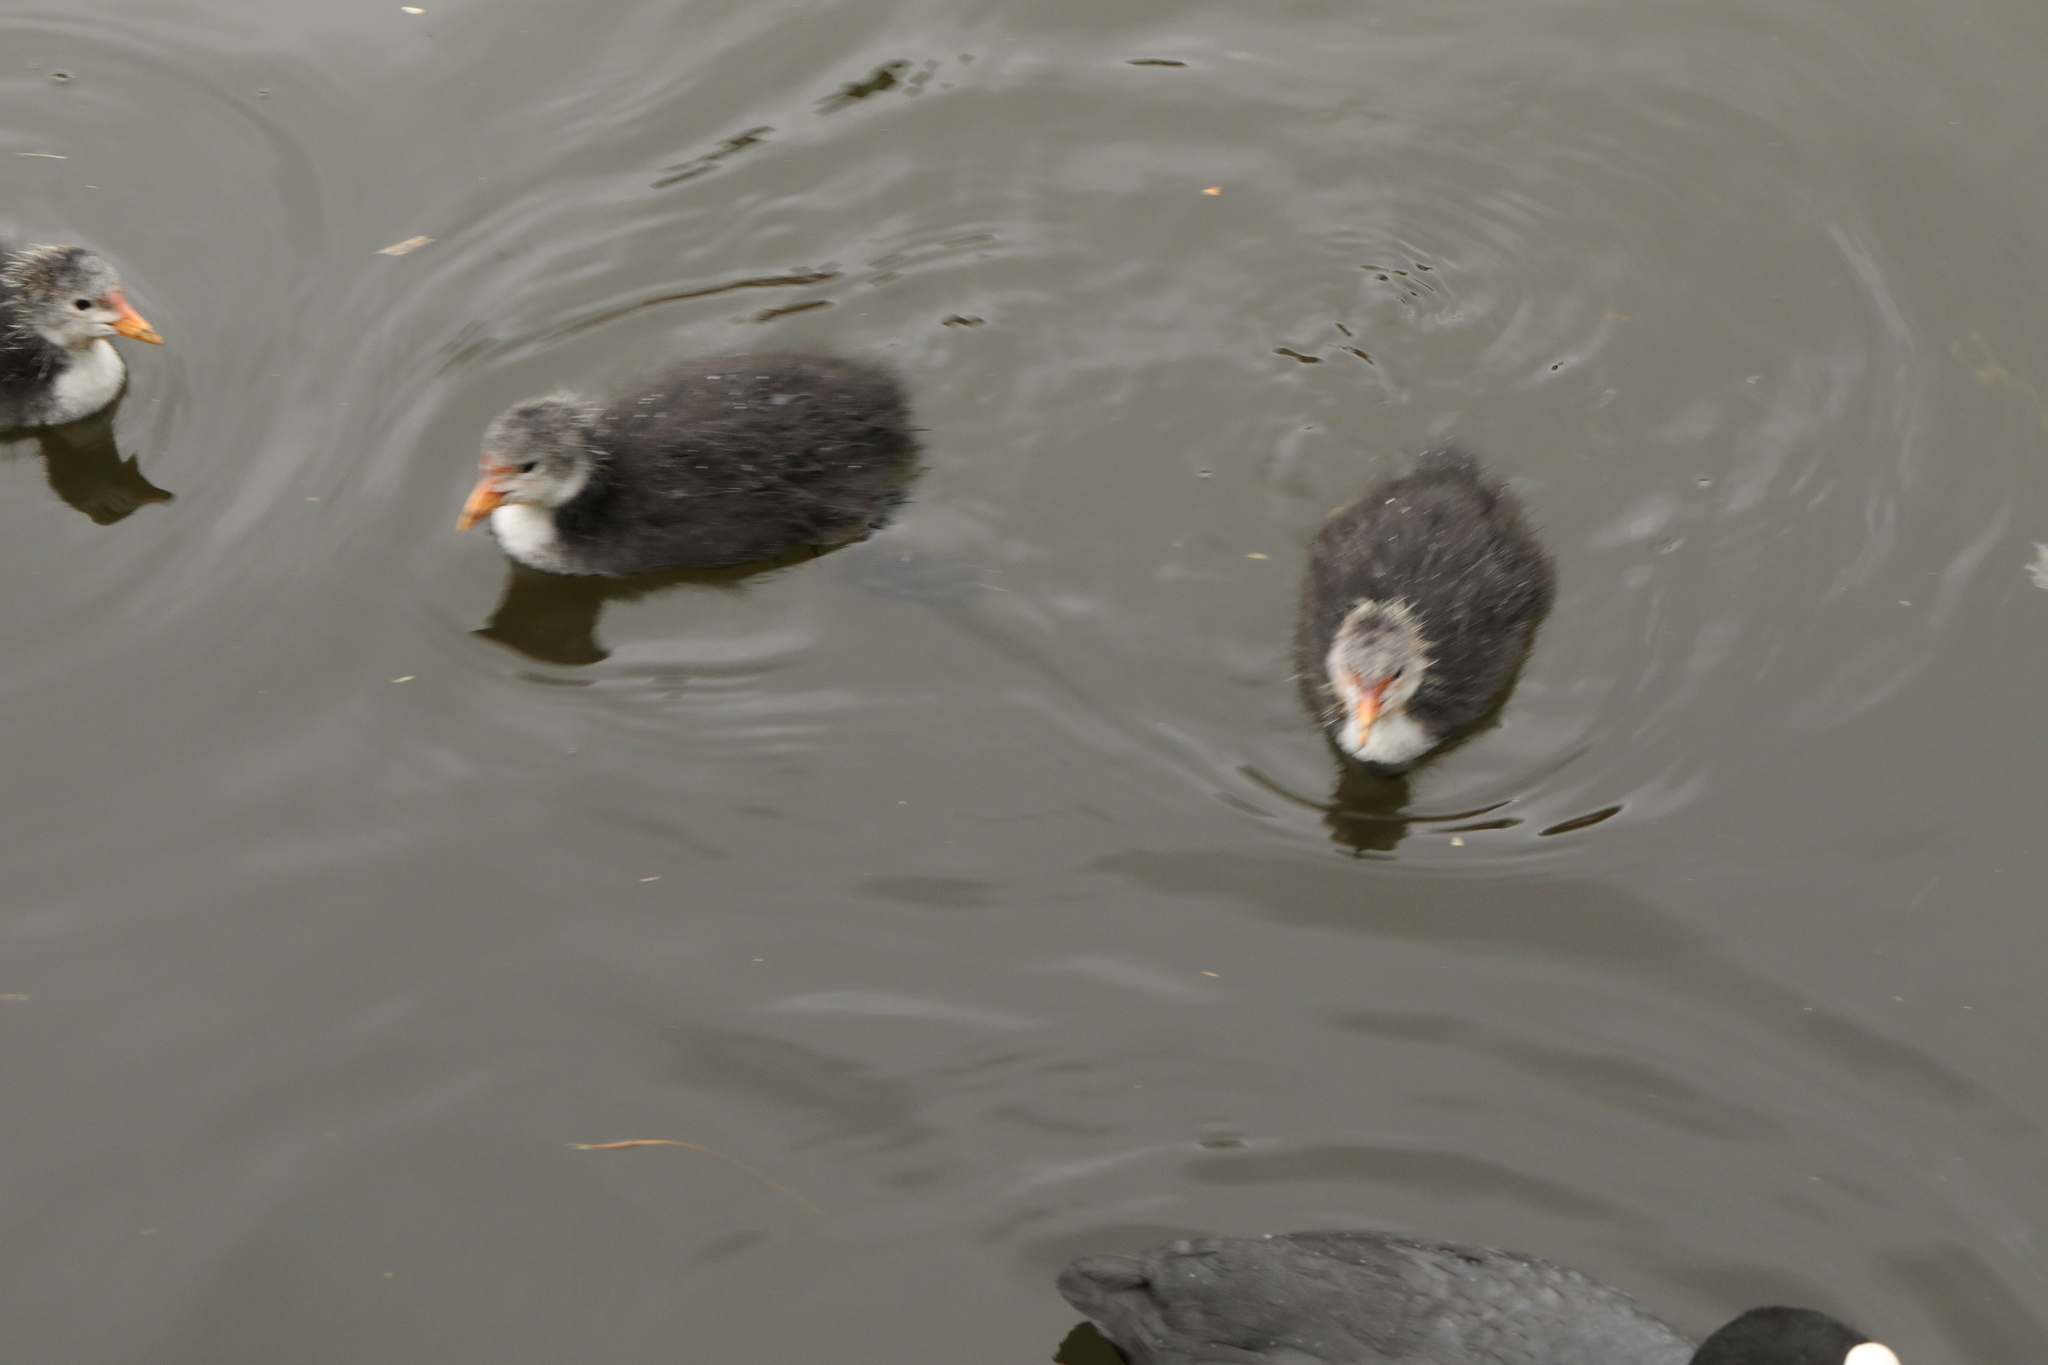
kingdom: Animalia
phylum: Chordata
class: Aves
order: Gruiformes
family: Rallidae
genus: Fulica
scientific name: Fulica atra
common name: Eurasian coot
